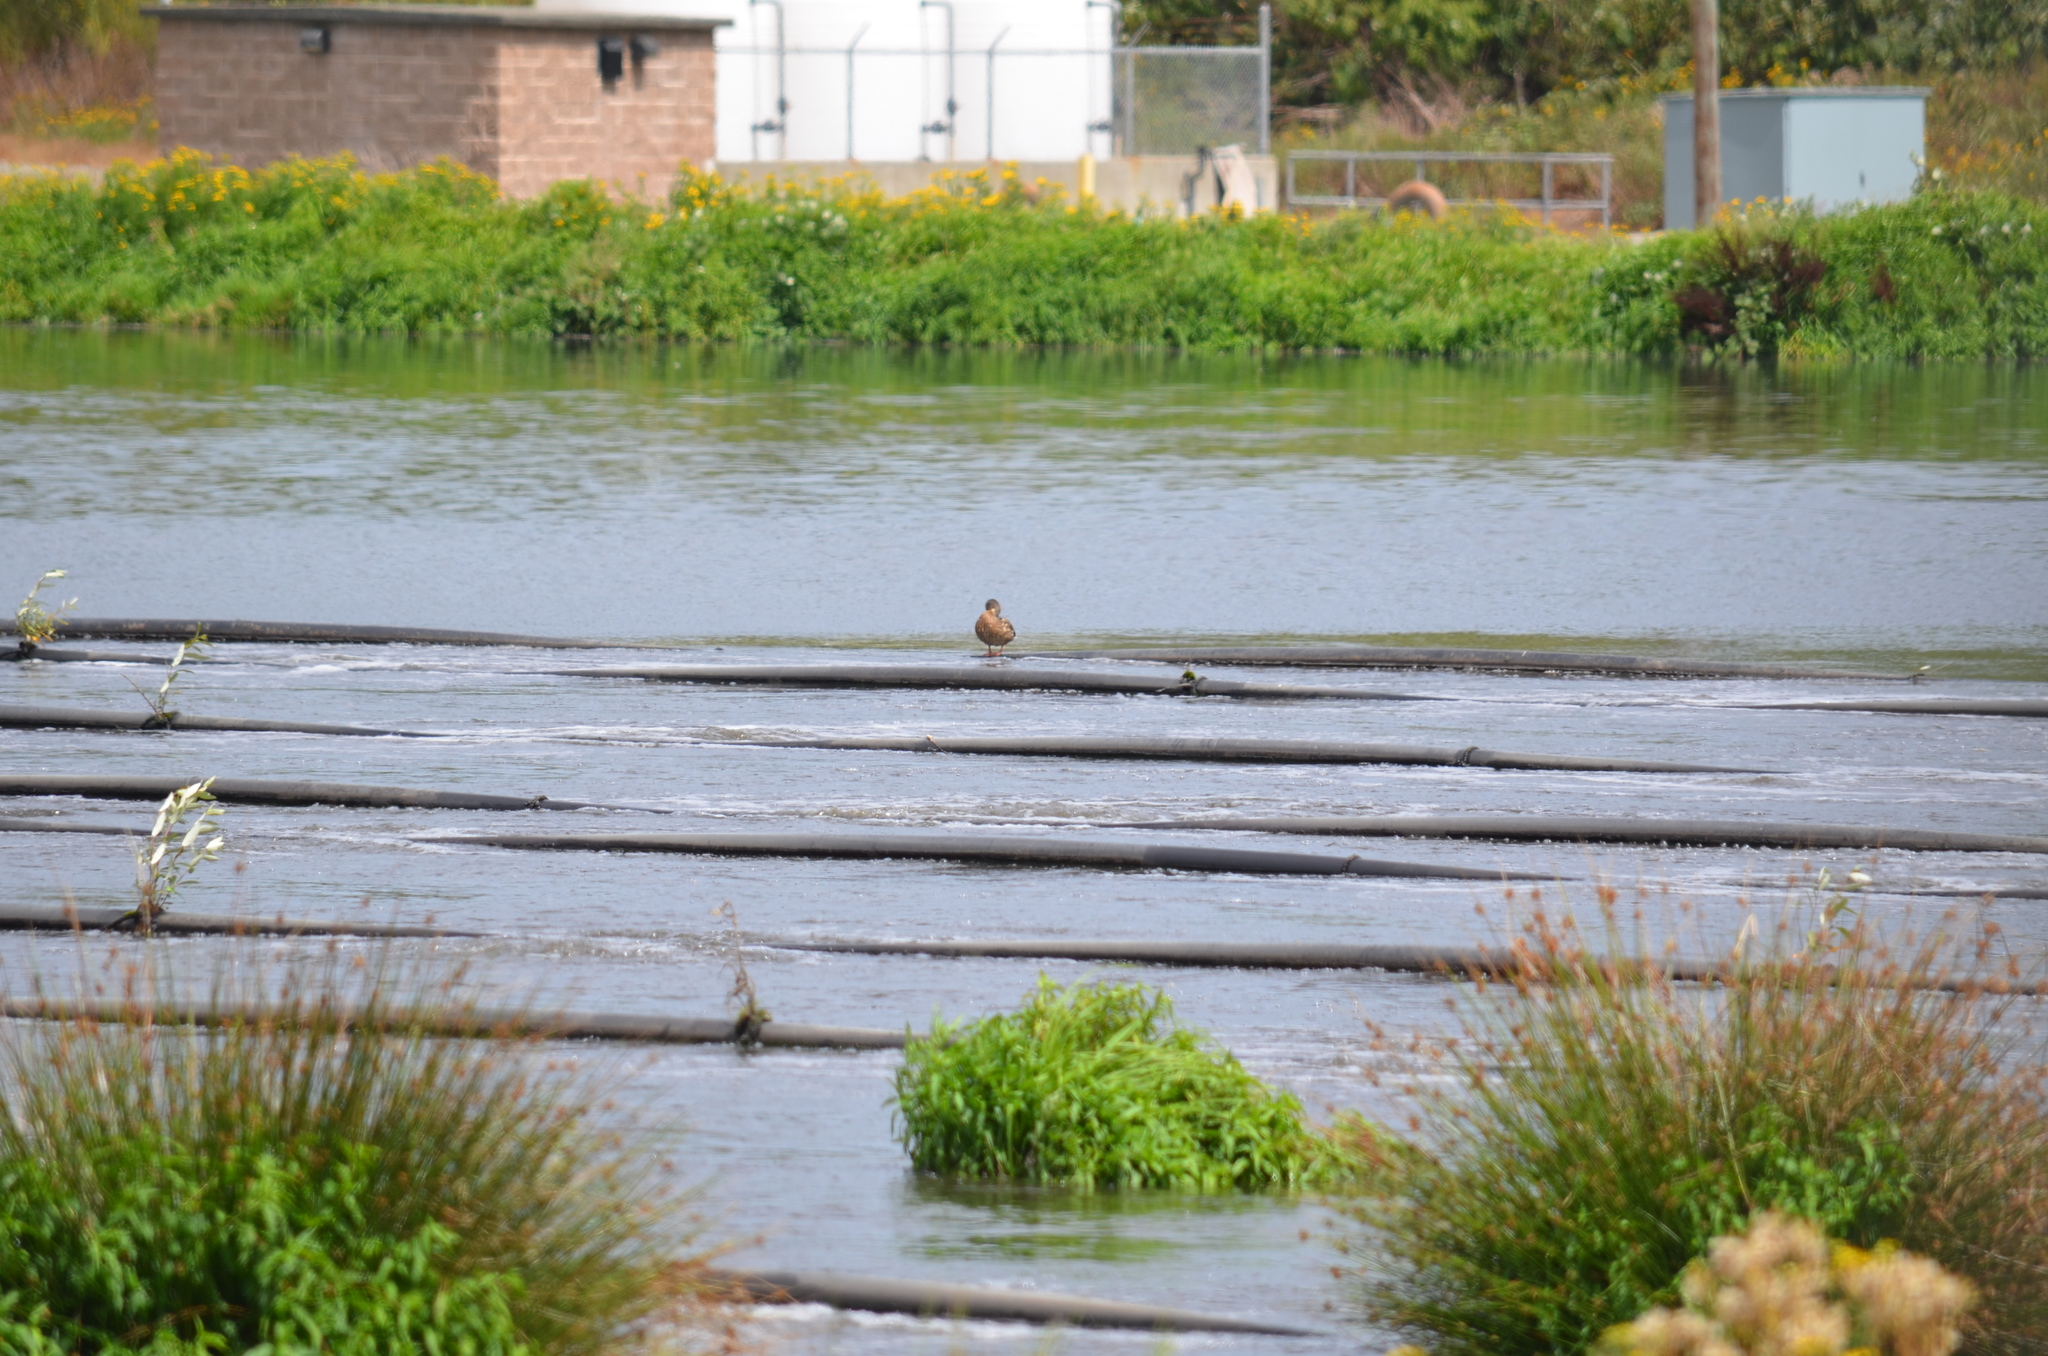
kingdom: Animalia
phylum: Chordata
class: Aves
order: Anseriformes
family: Anatidae
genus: Anas
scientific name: Anas platyrhynchos
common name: Mallard
